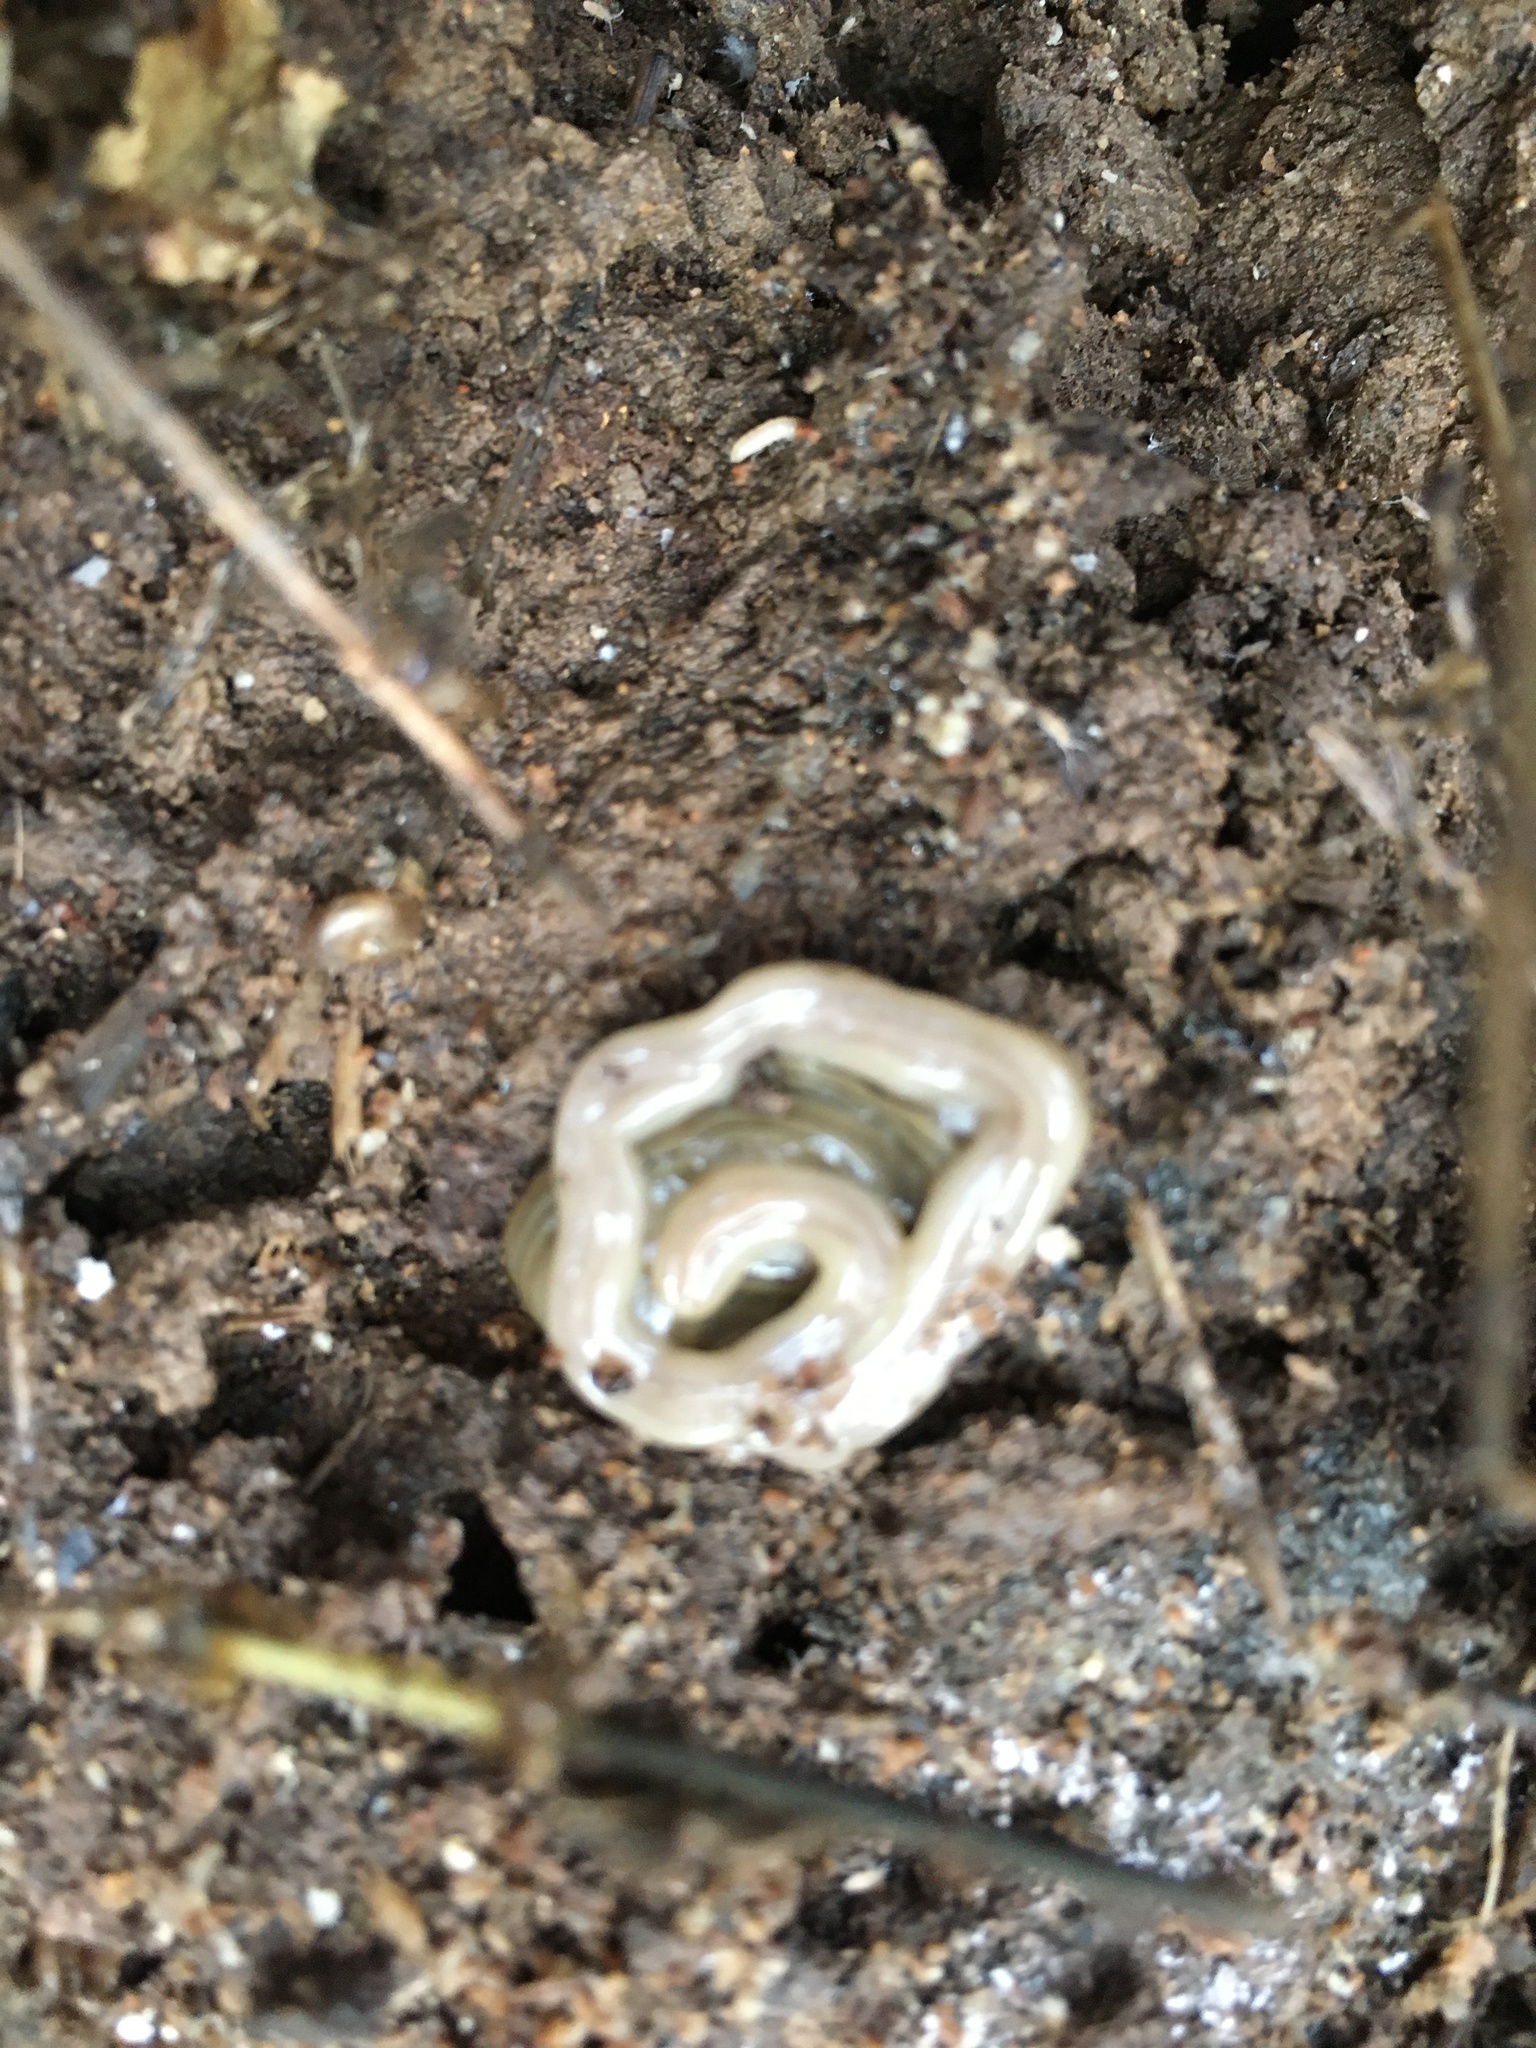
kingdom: Animalia
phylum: Platyhelminthes
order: Tricladida
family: Geoplanidae
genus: Bipalium
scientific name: Bipalium kewense
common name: Hammerhead flatworm
